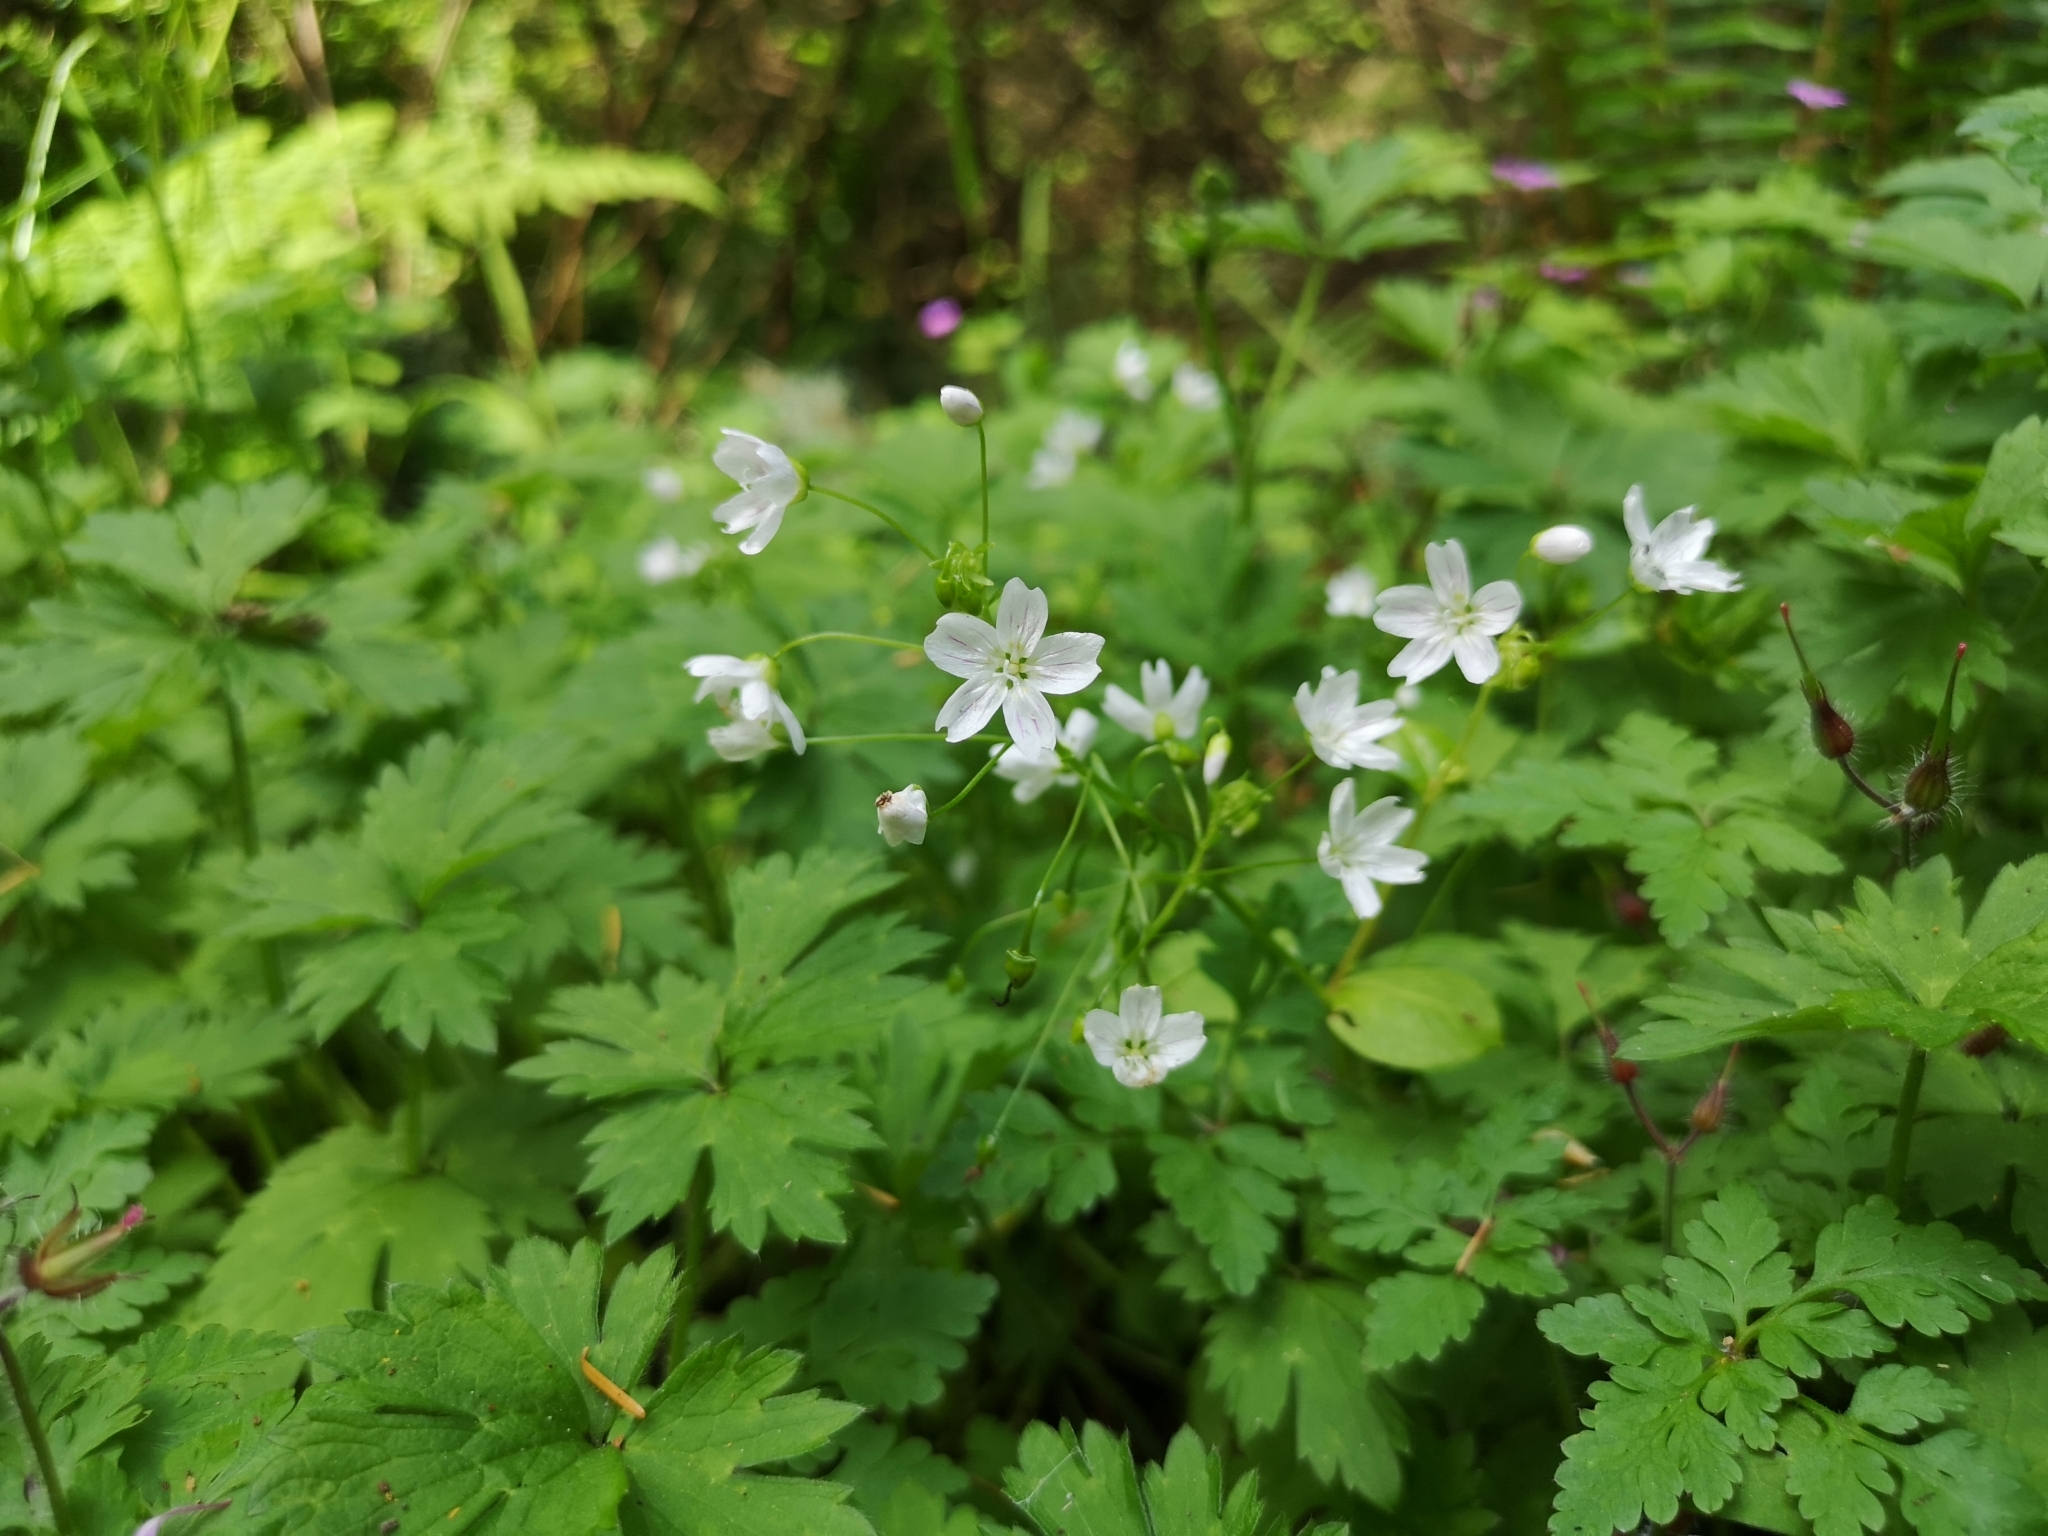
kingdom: Plantae
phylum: Tracheophyta
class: Magnoliopsida
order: Caryophyllales
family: Montiaceae
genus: Claytonia
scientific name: Claytonia sibirica
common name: Pink purslane
